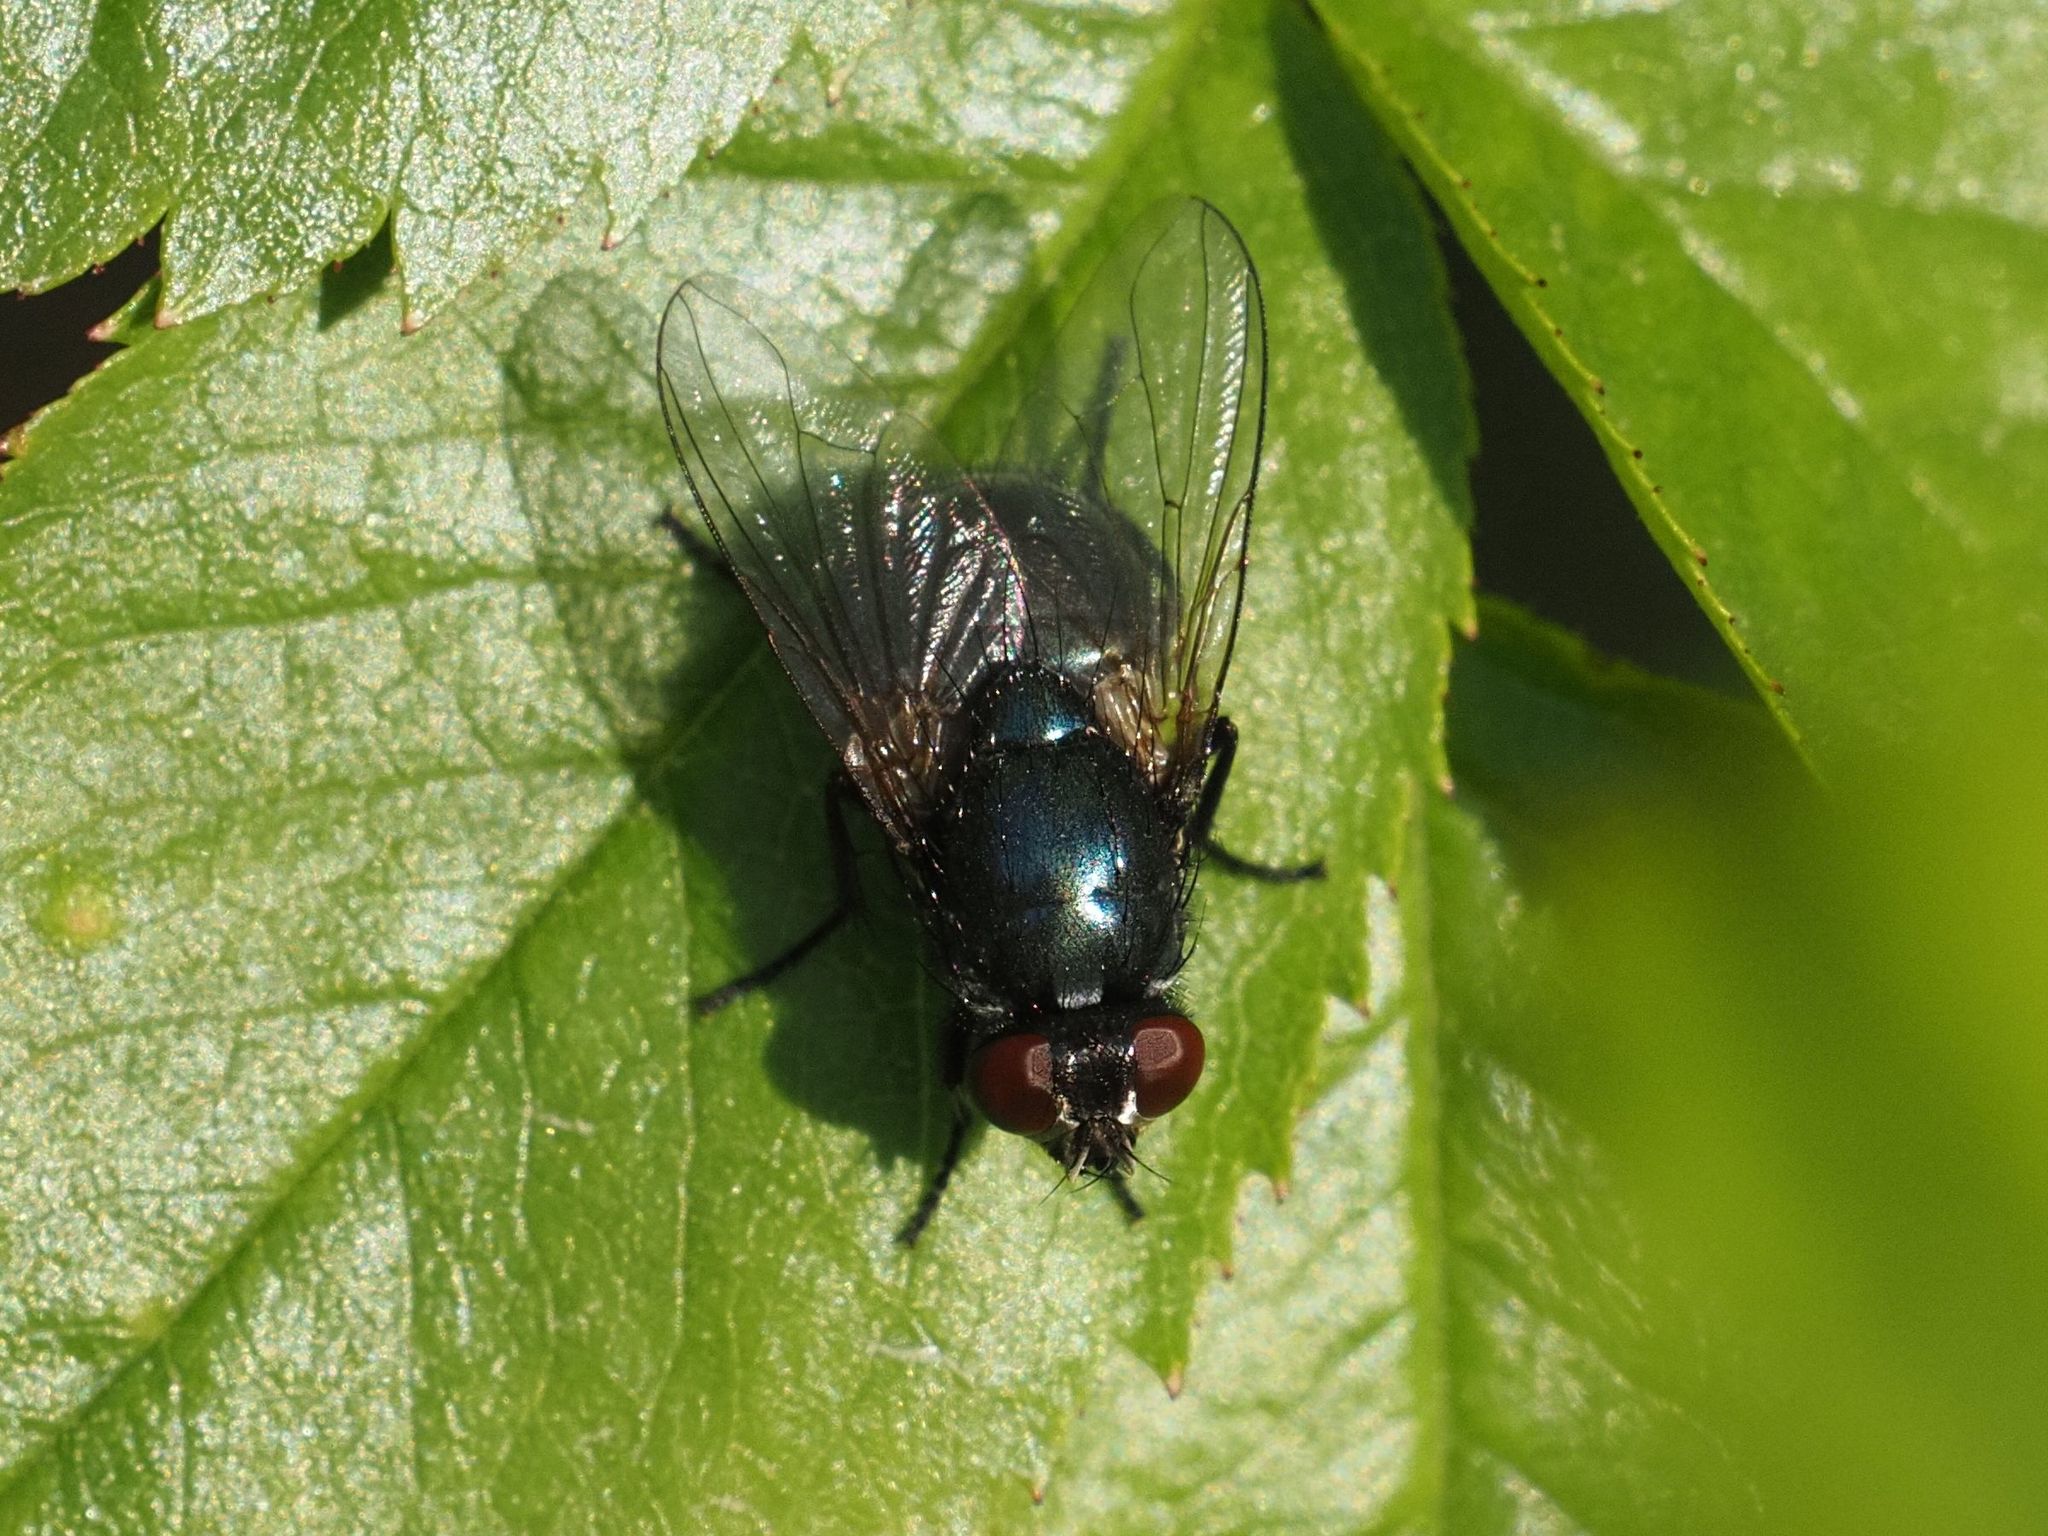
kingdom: Animalia
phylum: Arthropoda
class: Insecta
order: Diptera
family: Muscidae
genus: Eudasyphora
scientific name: Eudasyphora cyanicolor
